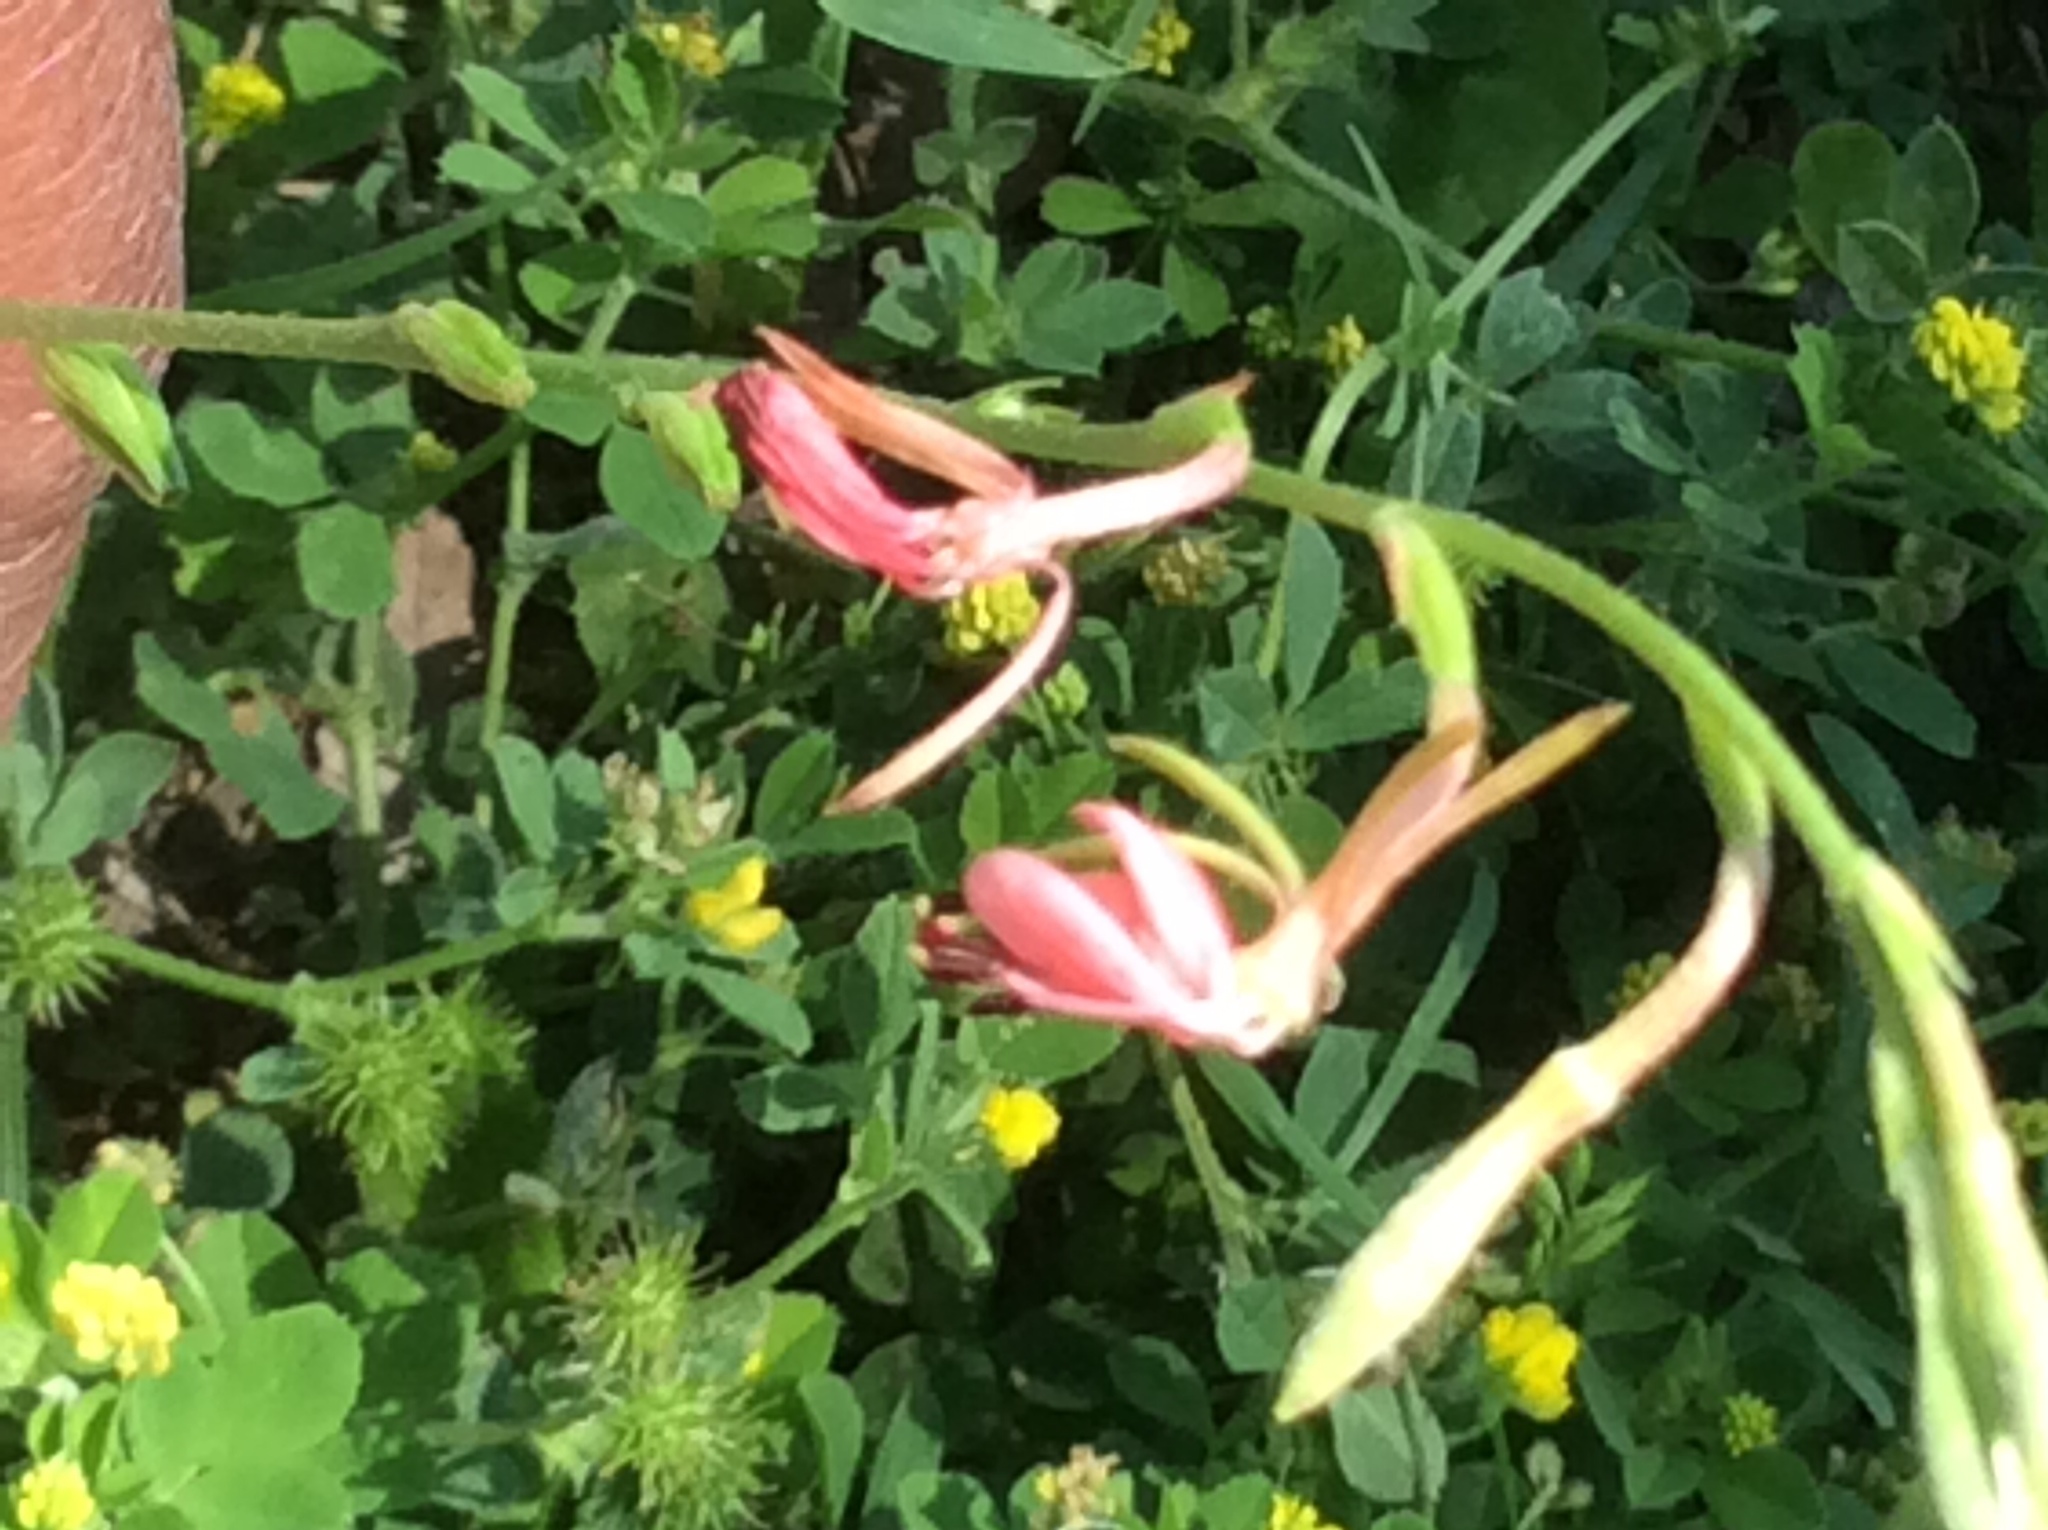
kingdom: Plantae
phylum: Tracheophyta
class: Magnoliopsida
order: Myrtales
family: Onagraceae
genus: Oenothera
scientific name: Oenothera suffulta
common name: Kisses
